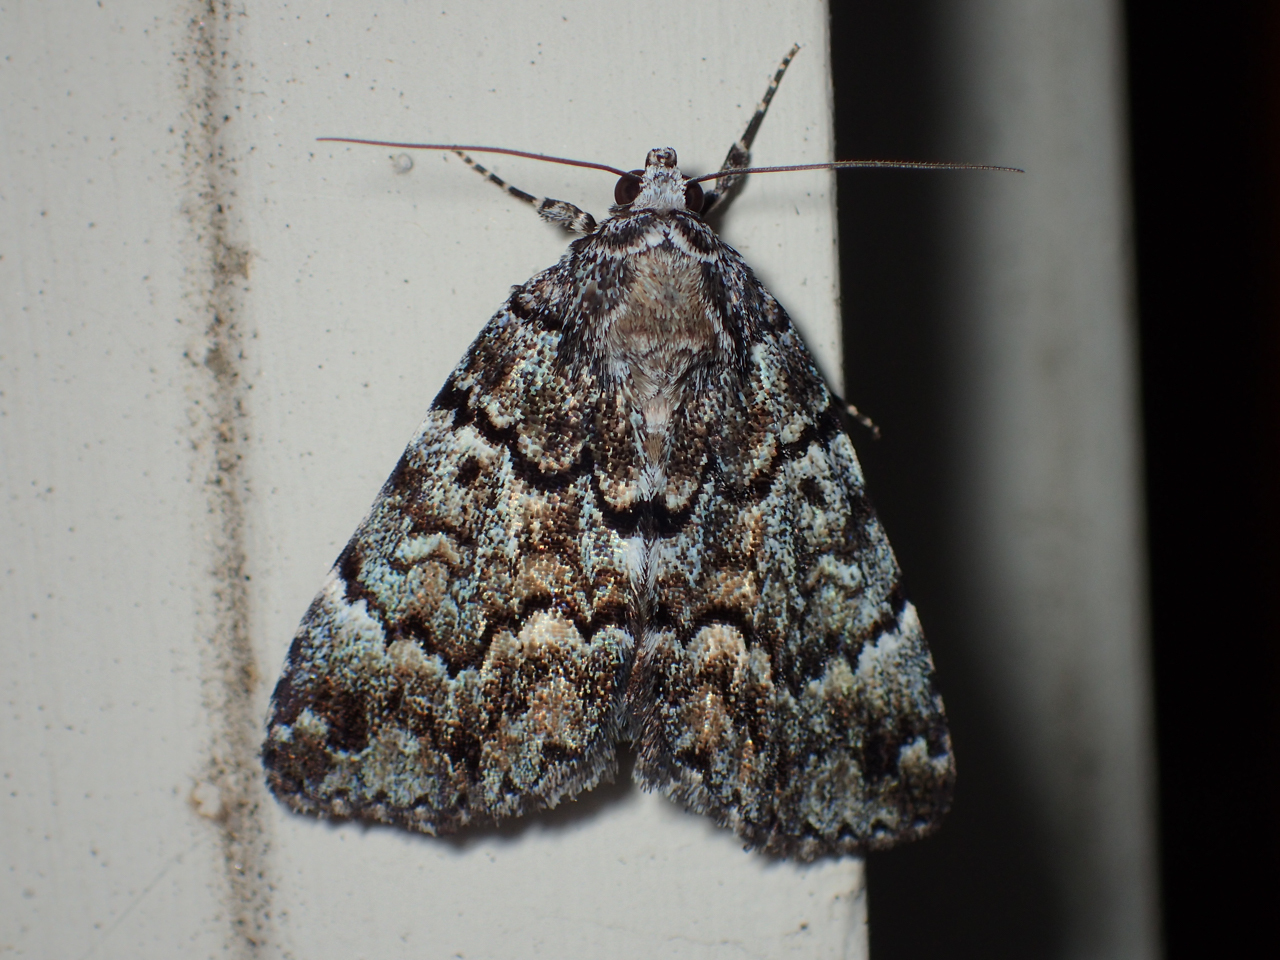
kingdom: Animalia
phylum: Arthropoda
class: Insecta
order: Lepidoptera
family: Erebidae
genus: Allotria
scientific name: Allotria elonympha
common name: False underwing
